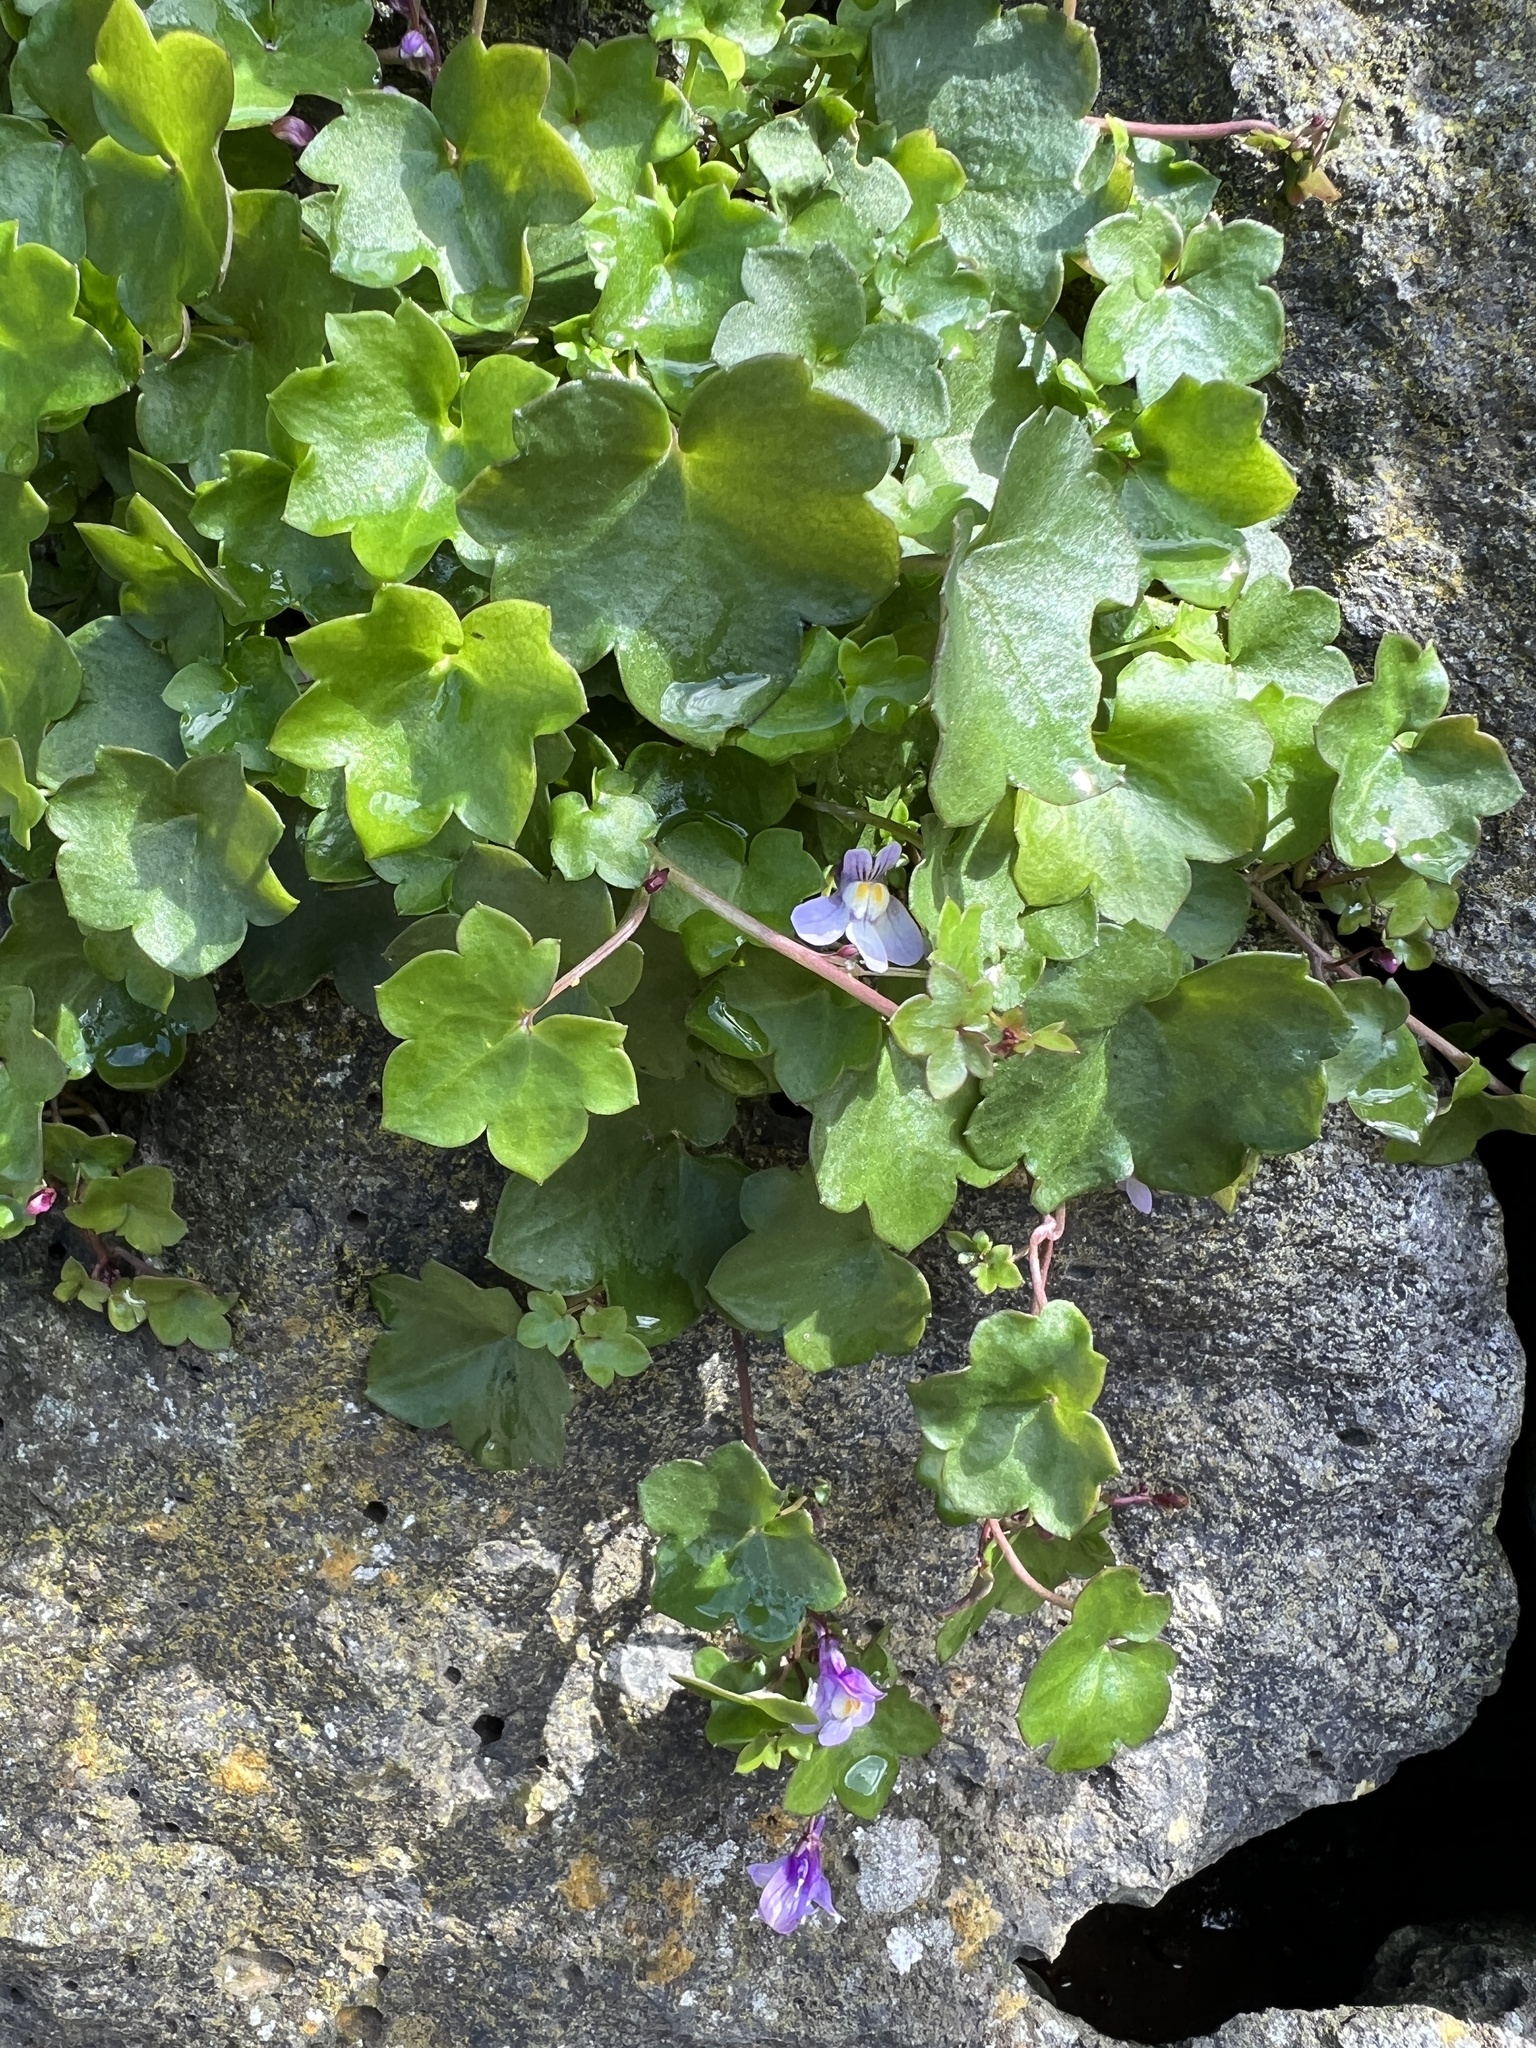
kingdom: Plantae
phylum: Tracheophyta
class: Magnoliopsida
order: Lamiales
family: Plantaginaceae
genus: Cymbalaria
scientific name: Cymbalaria muralis
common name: Ivy-leaved toadflax
